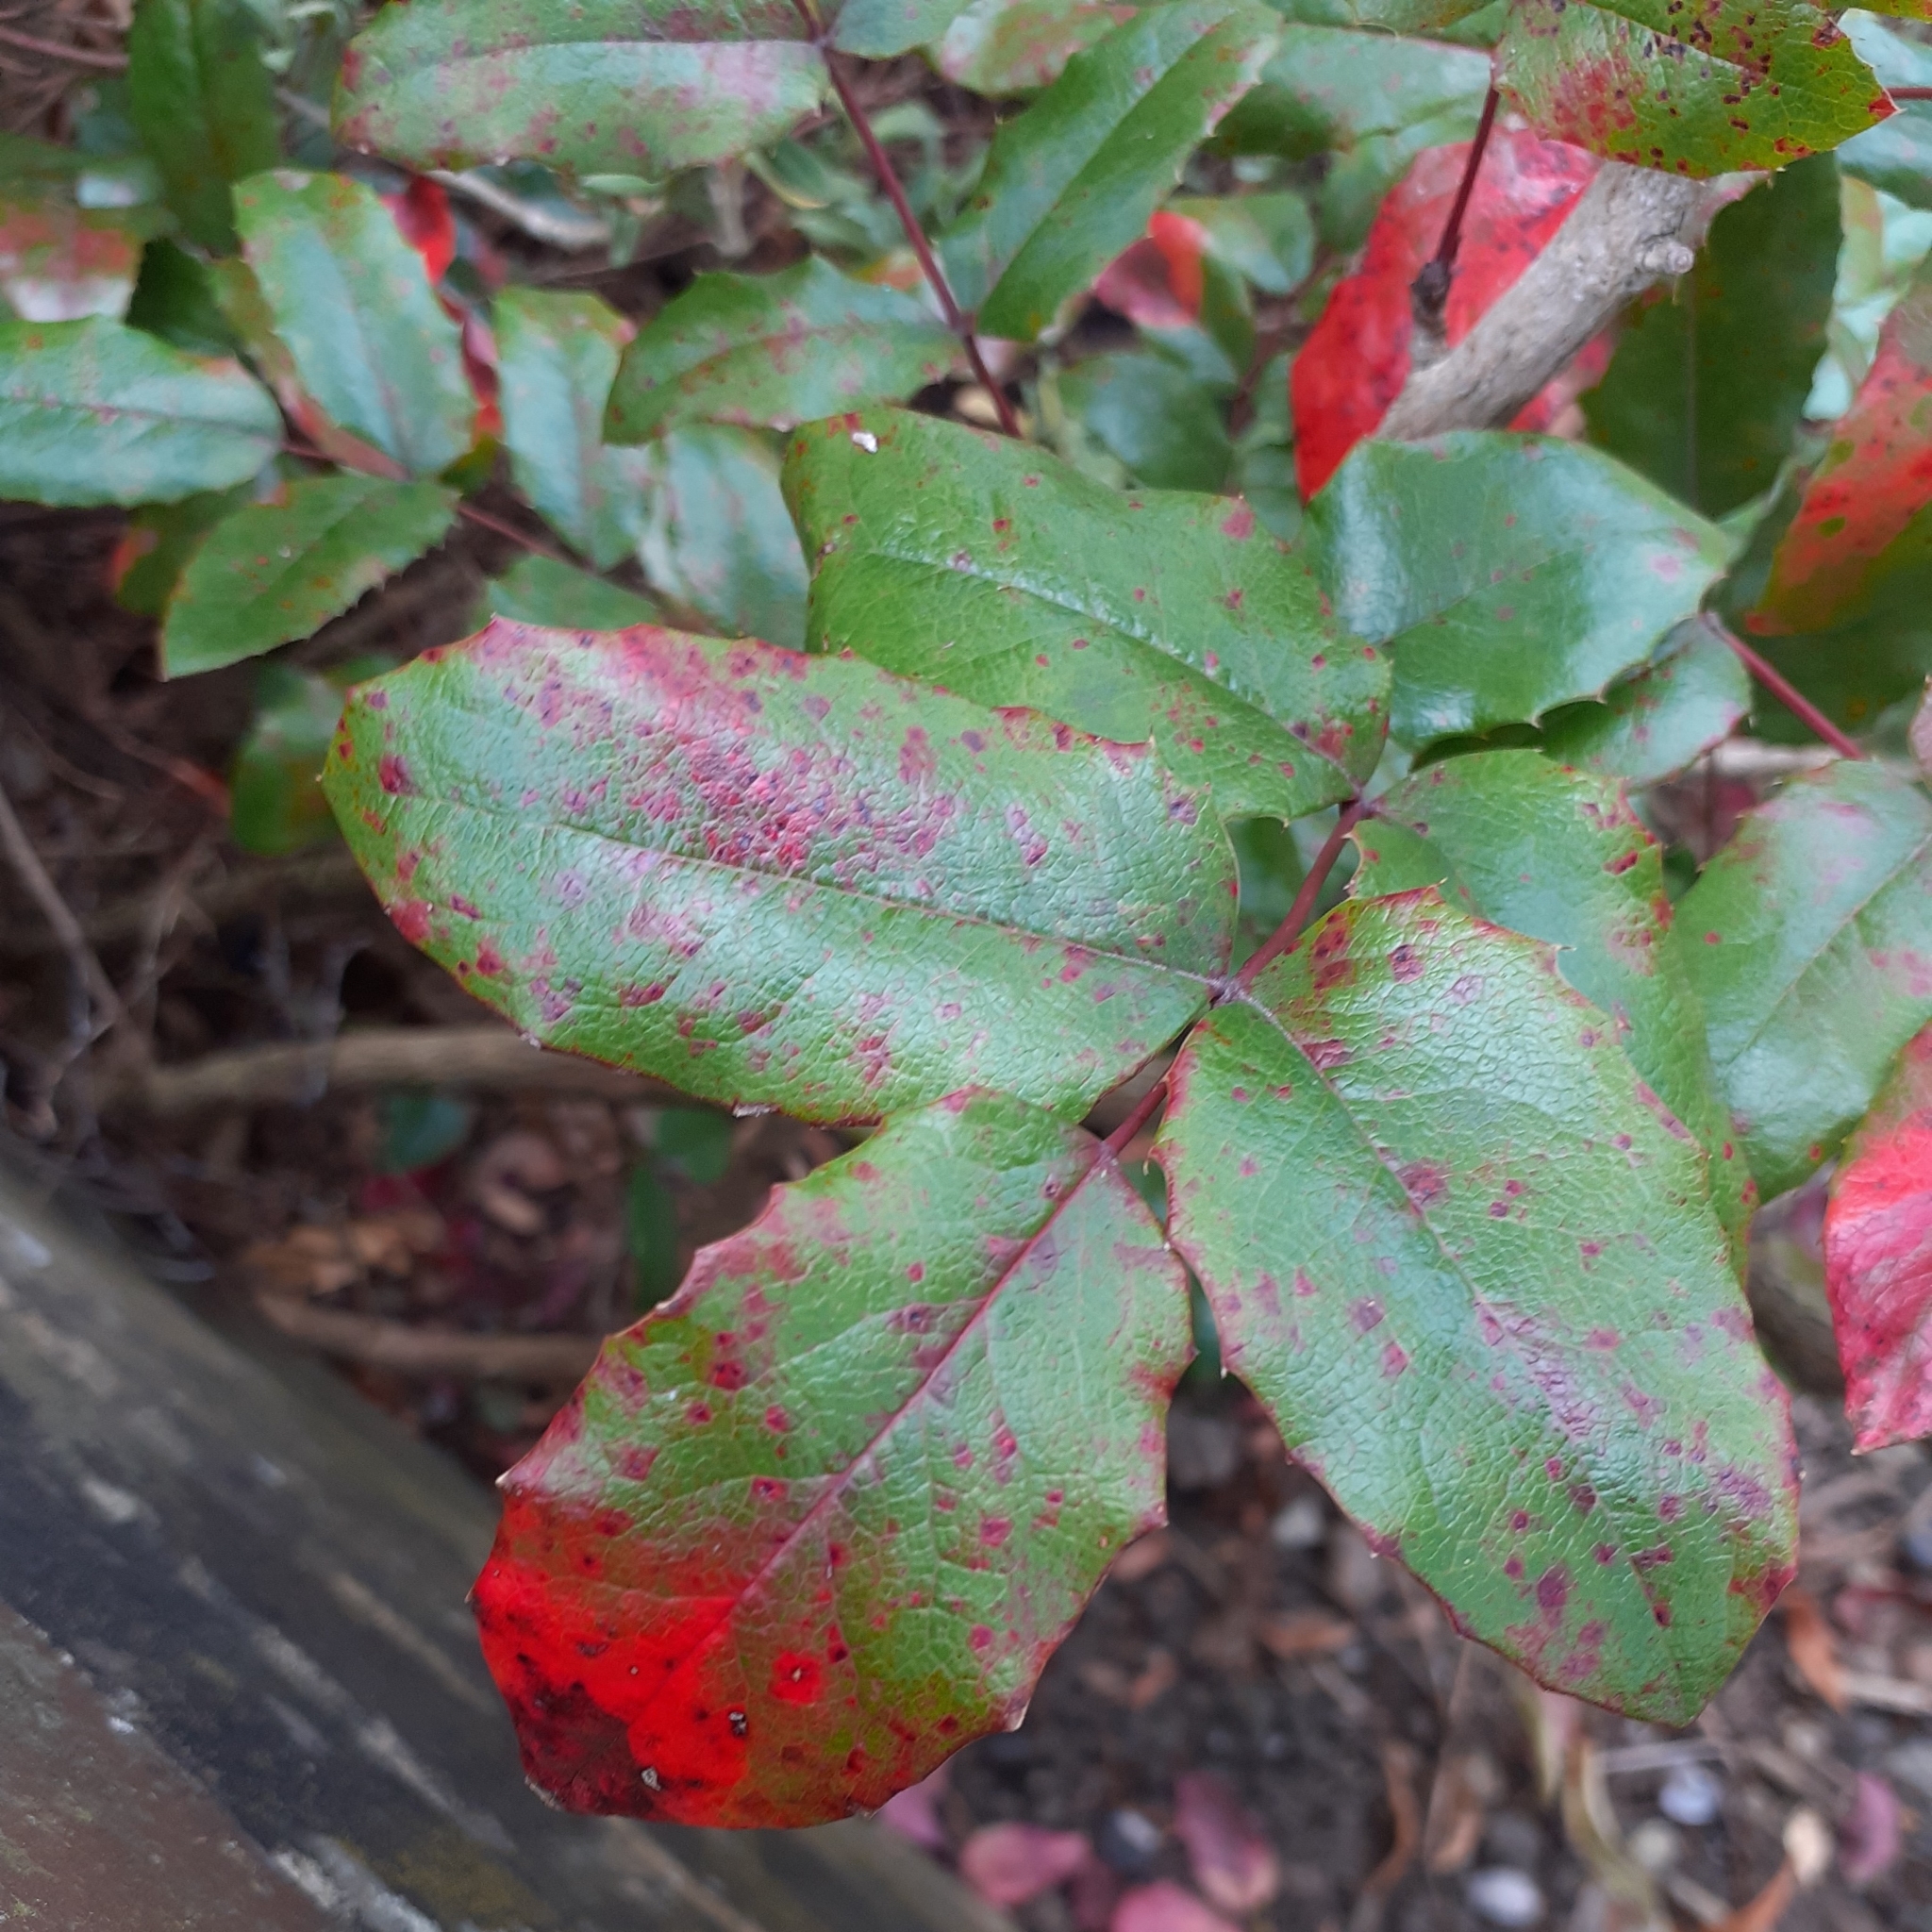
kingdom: Fungi
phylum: Basidiomycota
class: Pucciniomycetes
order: Pucciniales
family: Pucciniaceae
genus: Cumminsiella
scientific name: Cumminsiella mirabilissima
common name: Mahonia rust
